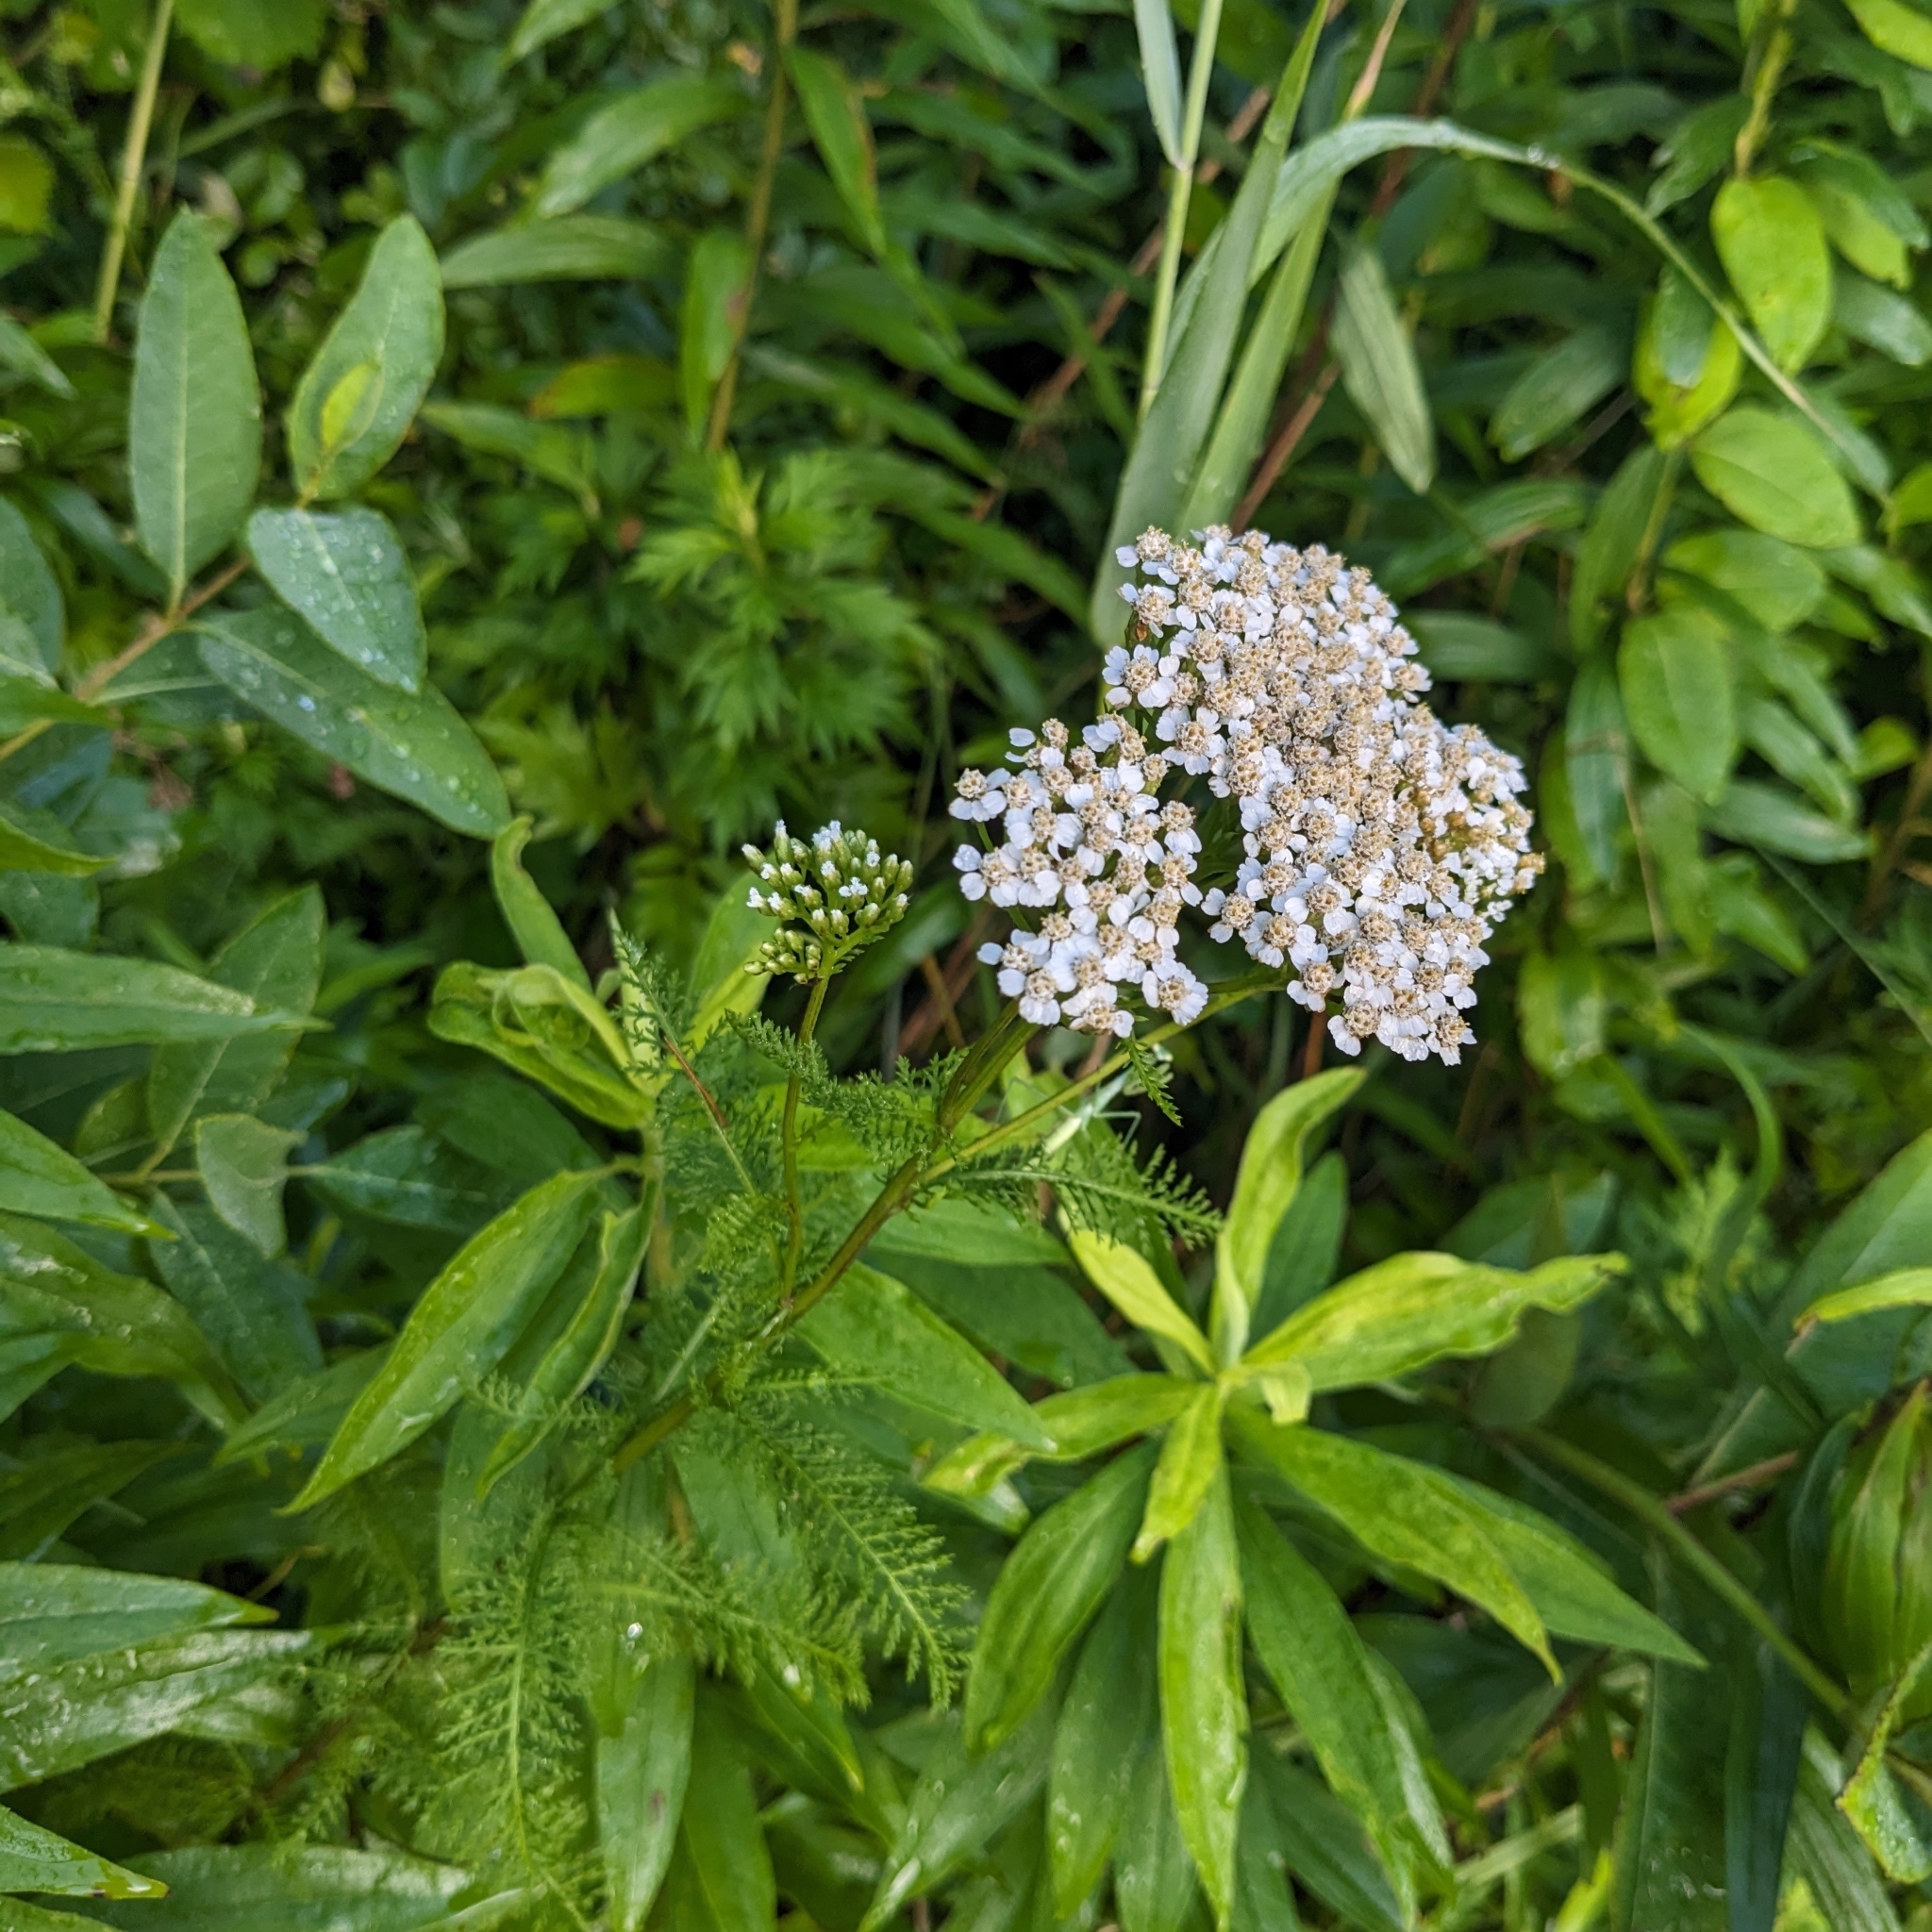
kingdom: Plantae
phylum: Tracheophyta
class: Magnoliopsida
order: Asterales
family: Asteraceae
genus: Achillea
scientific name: Achillea millefolium
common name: Yarrow
